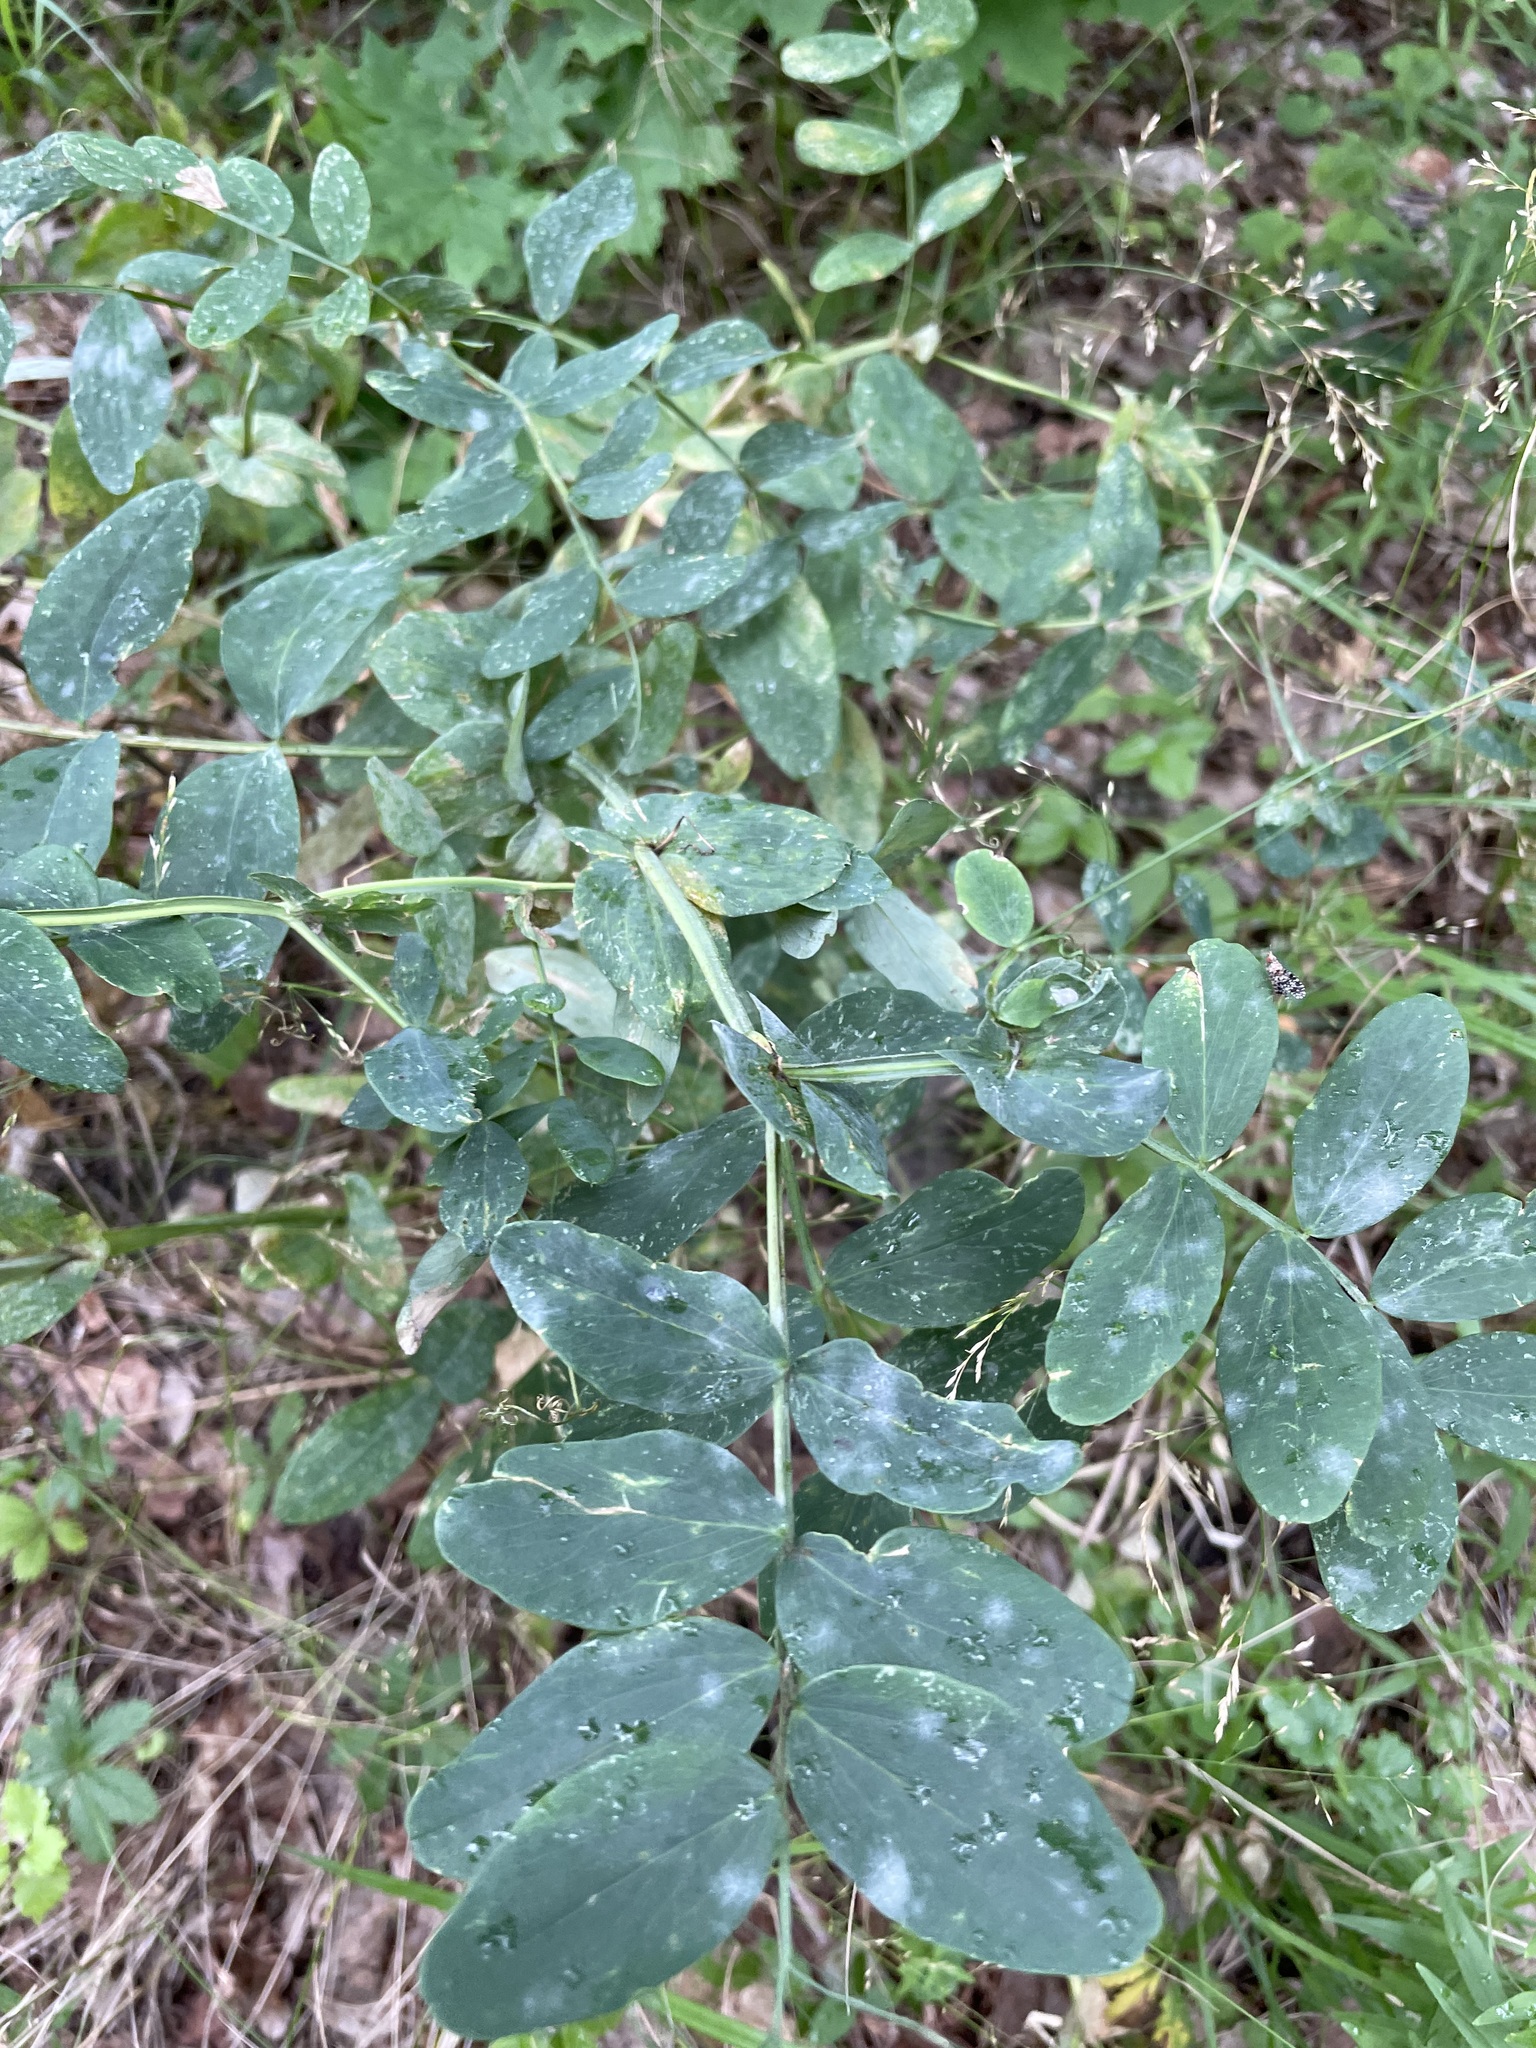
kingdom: Plantae
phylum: Tracheophyta
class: Magnoliopsida
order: Fabales
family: Fabaceae
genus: Lathyrus
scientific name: Lathyrus pisiformis
